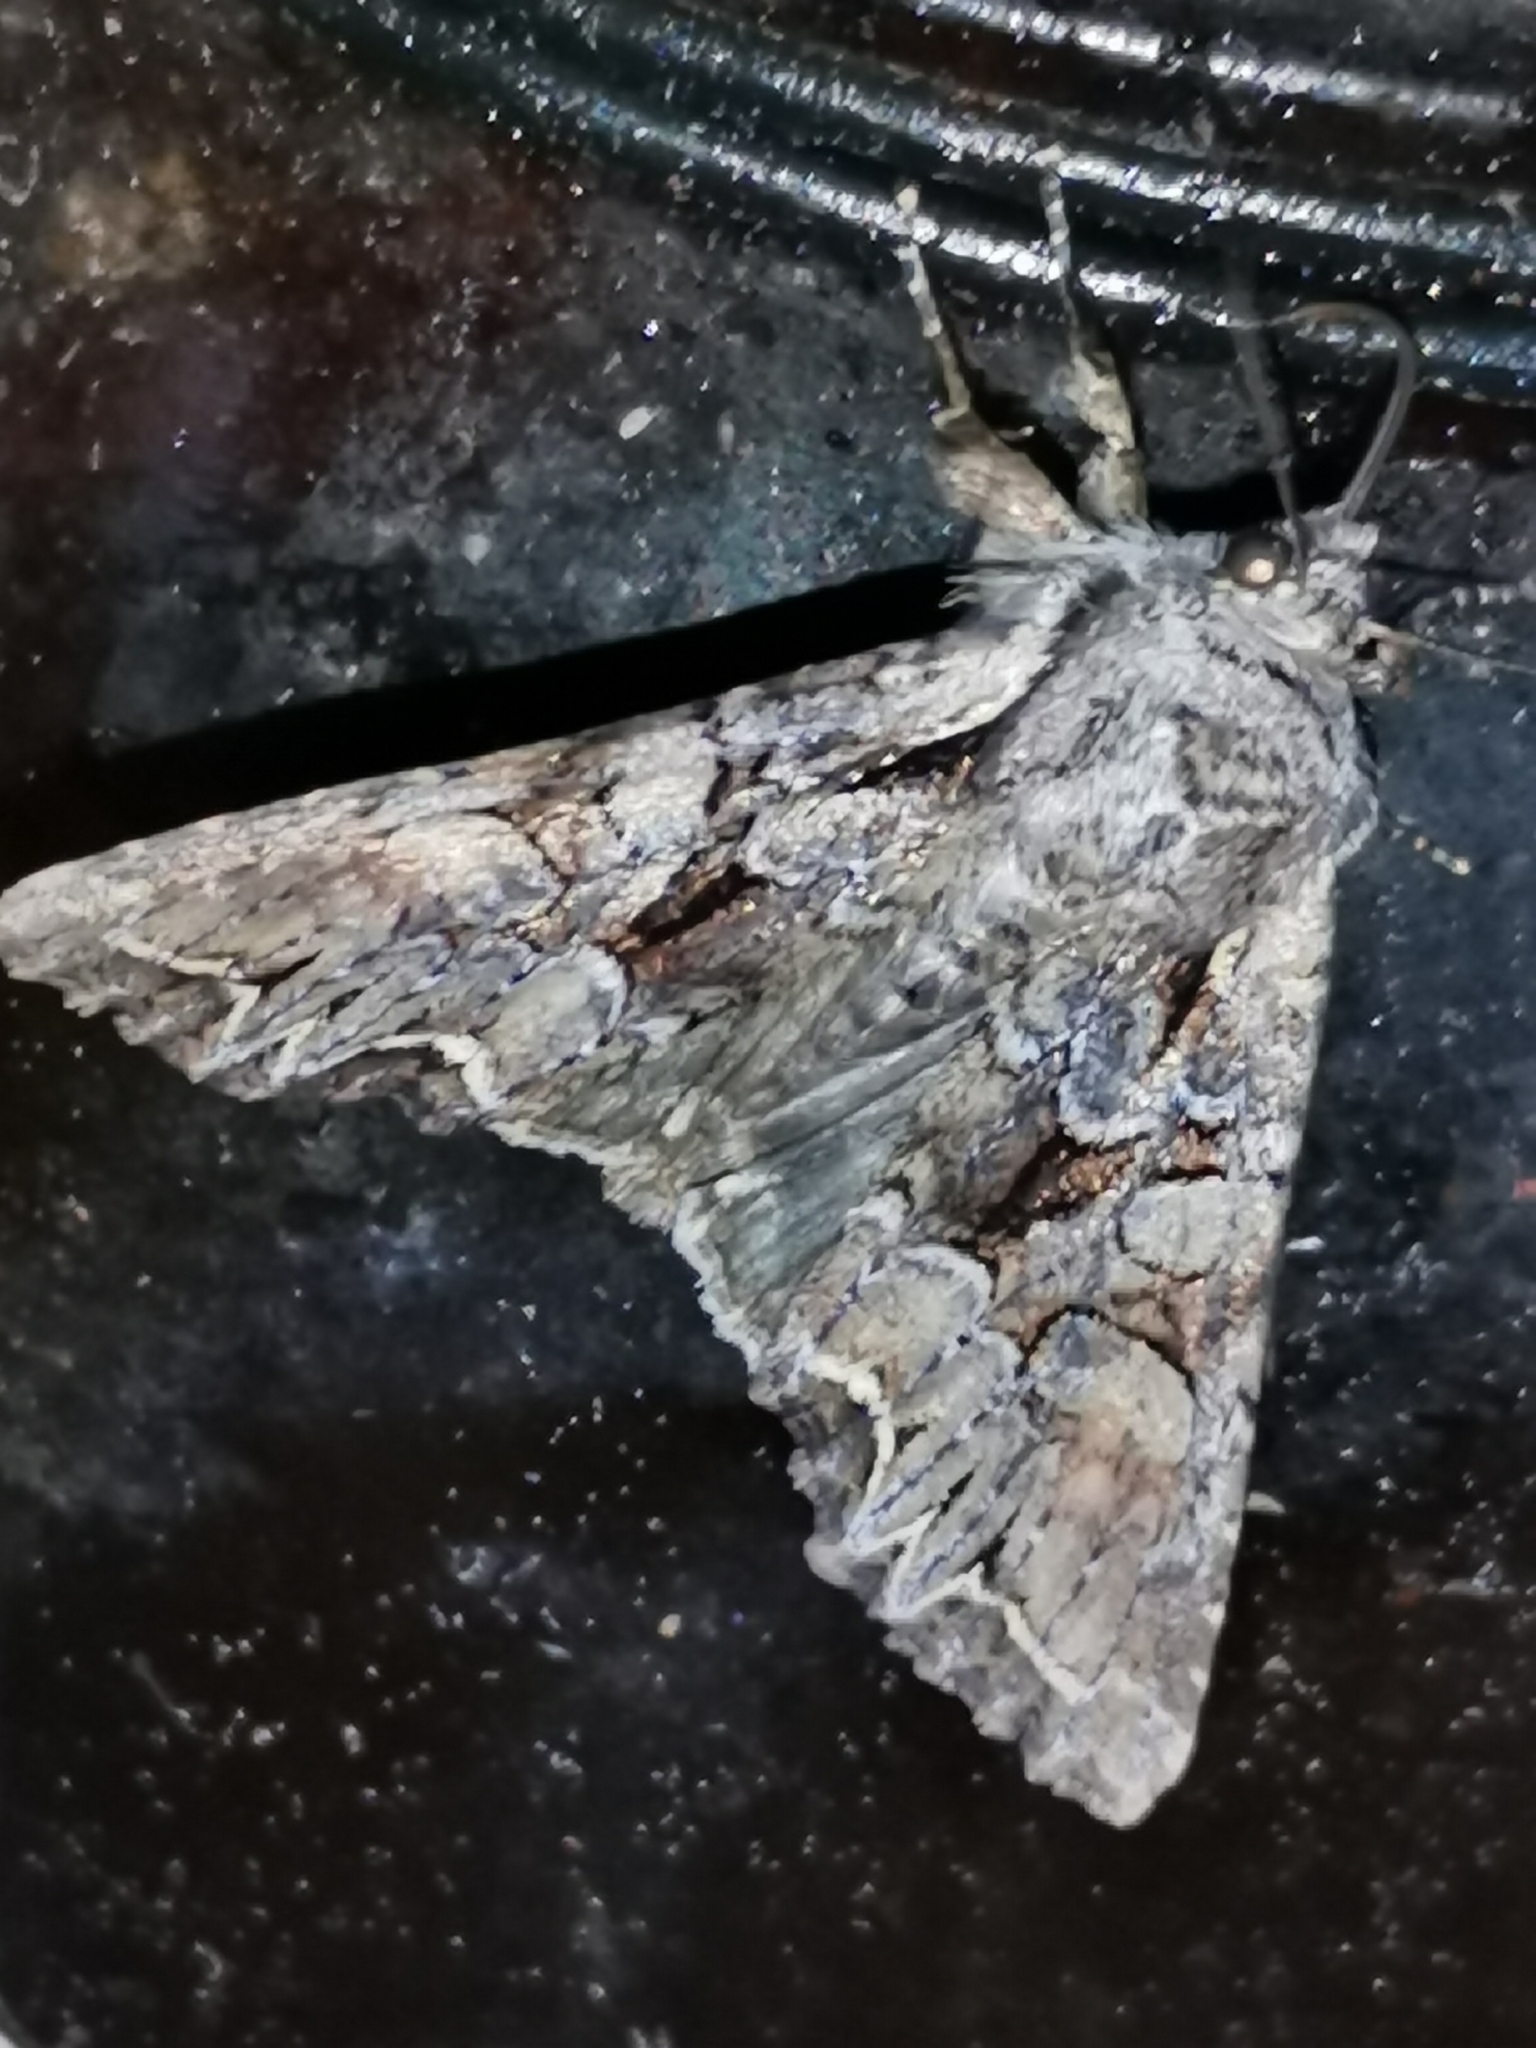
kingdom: Animalia
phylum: Arthropoda
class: Insecta
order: Lepidoptera
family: Noctuidae
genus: Lacanobia
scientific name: Lacanobia thalassina
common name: Pale-shouldered brocade
